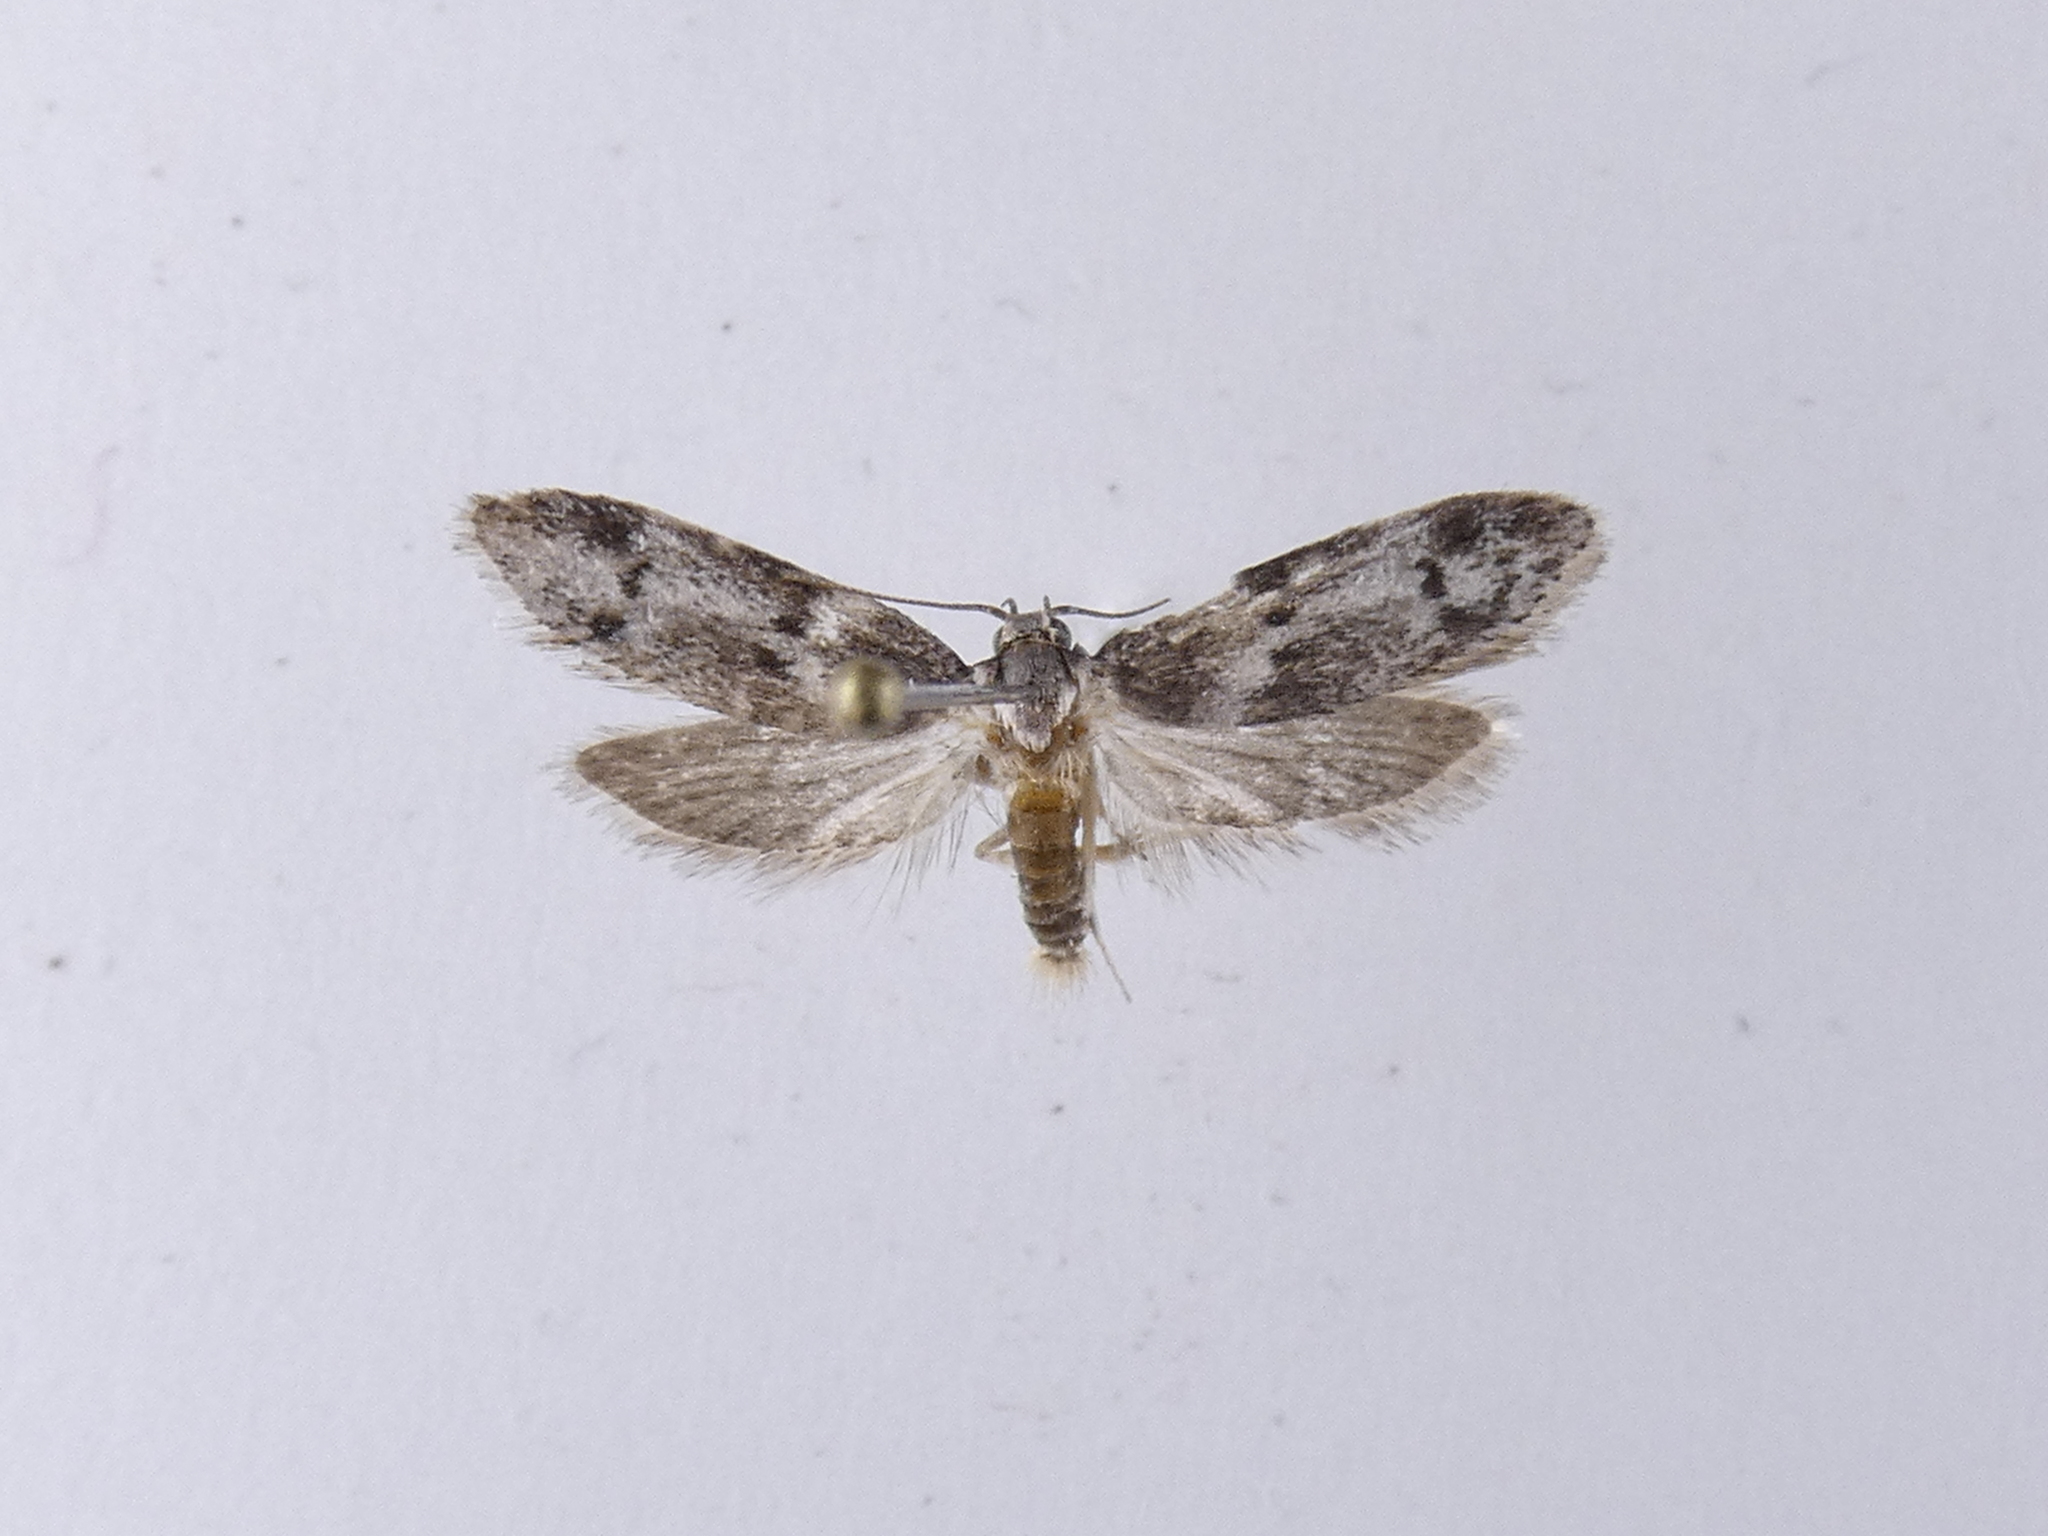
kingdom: Animalia
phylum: Arthropoda
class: Insecta
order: Lepidoptera
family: Oecophoridae
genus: Trachypepla
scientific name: Trachypepla photinella
